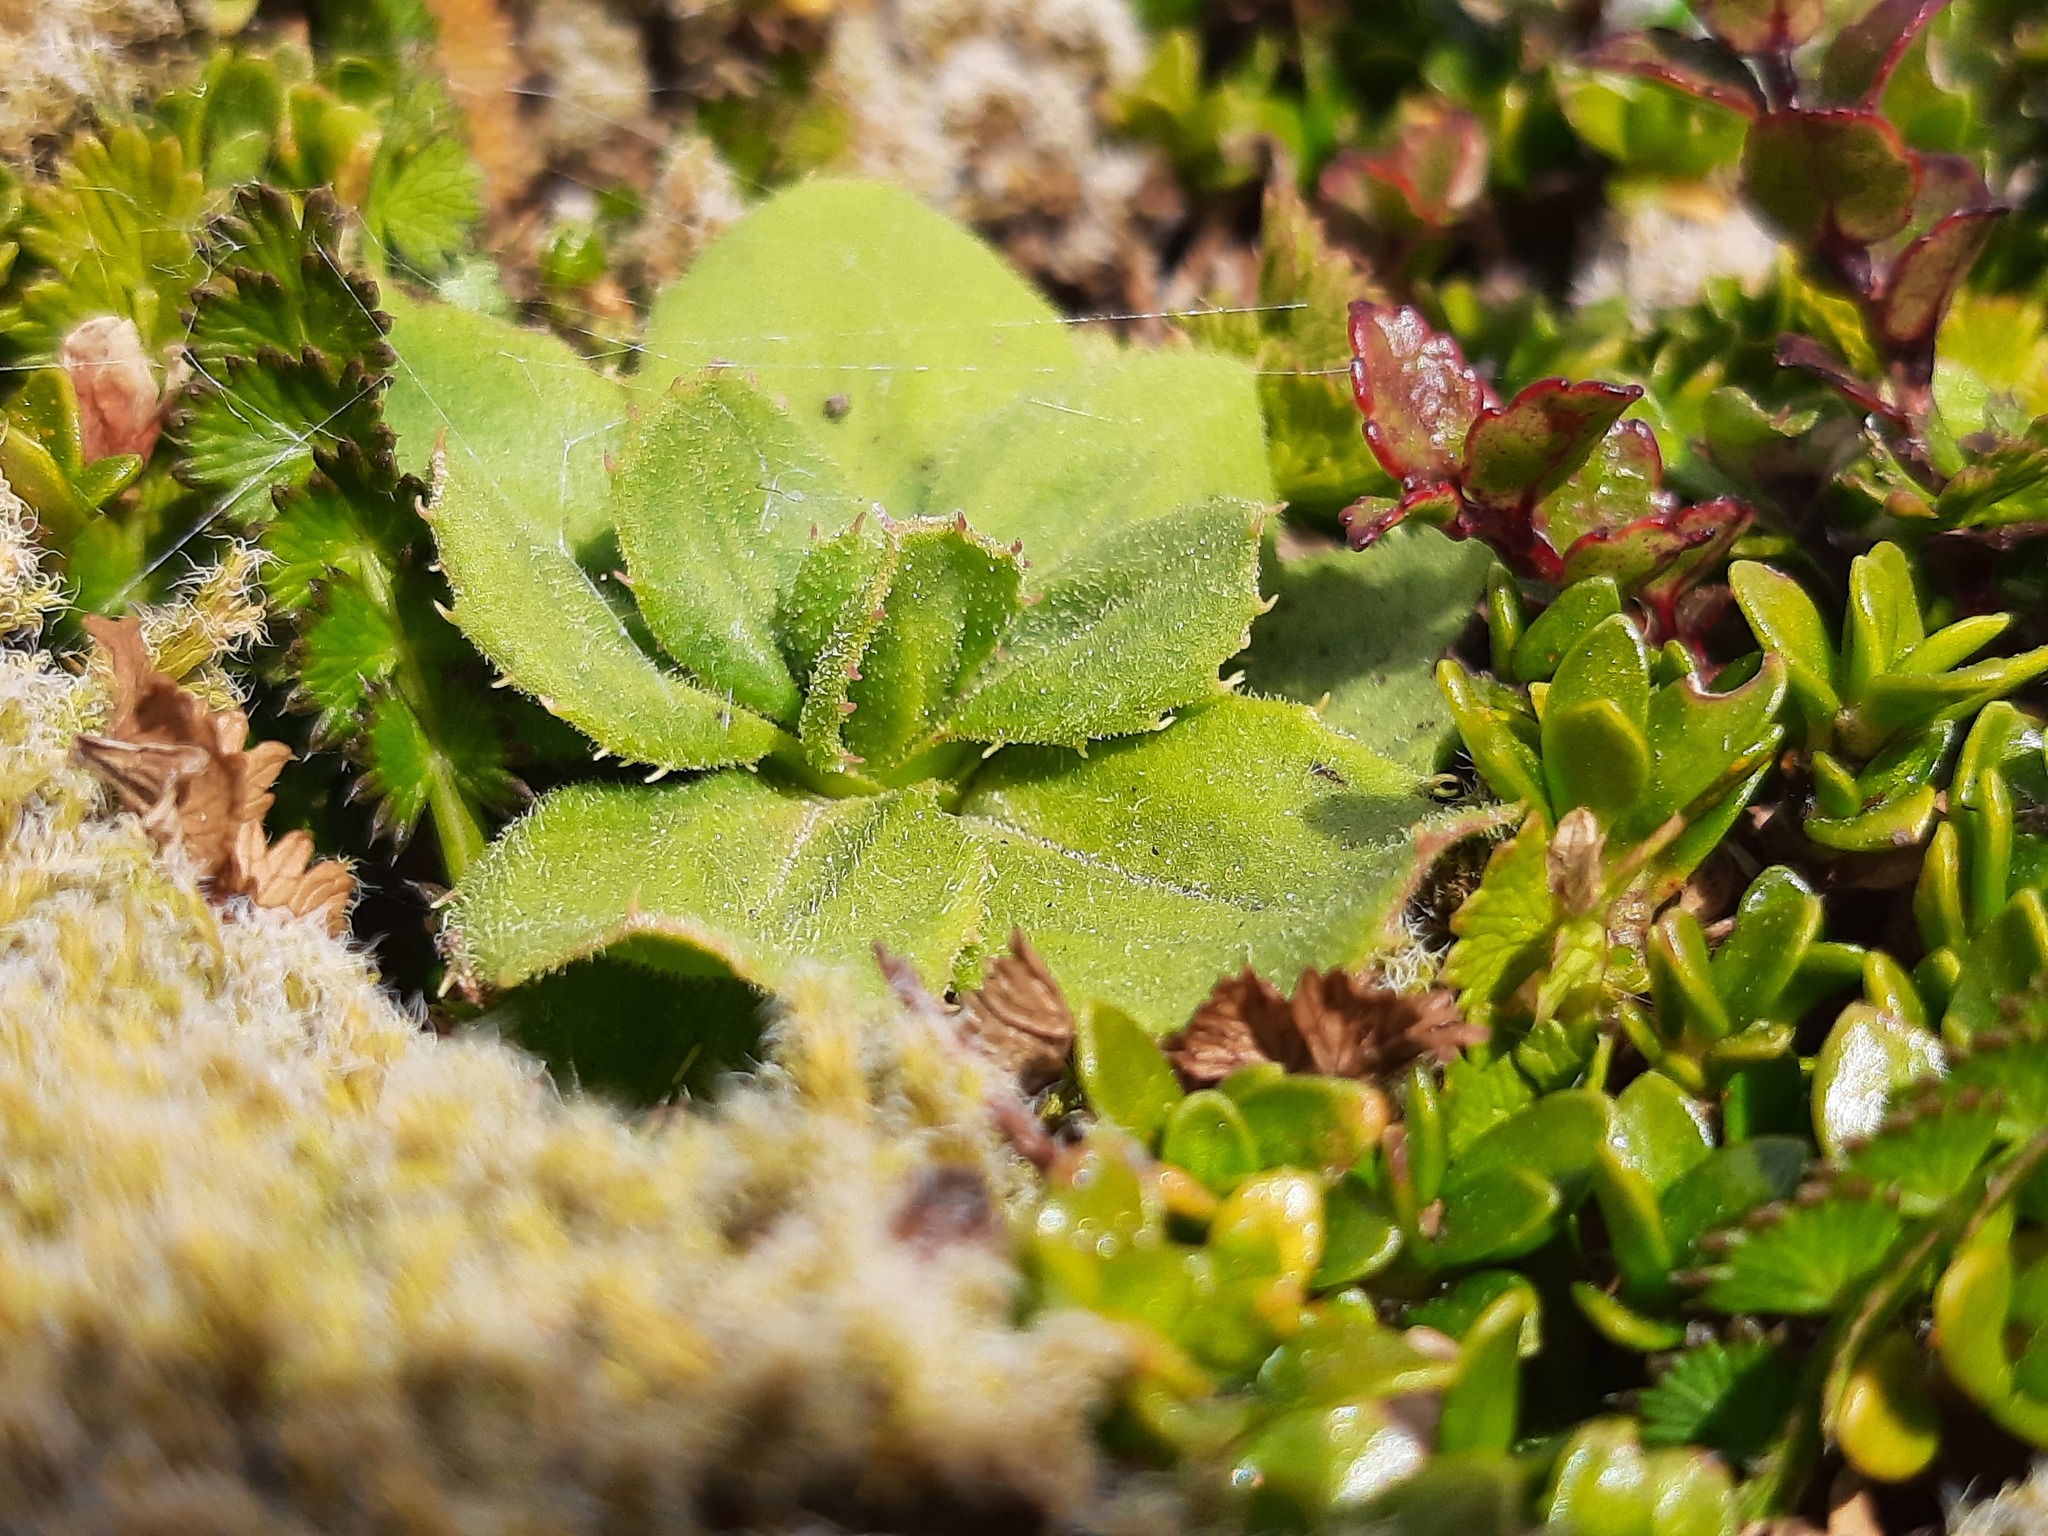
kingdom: Plantae
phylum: Tracheophyta
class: Magnoliopsida
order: Asterales
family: Asteraceae
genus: Celmisia
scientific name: Celmisia glandulosa
